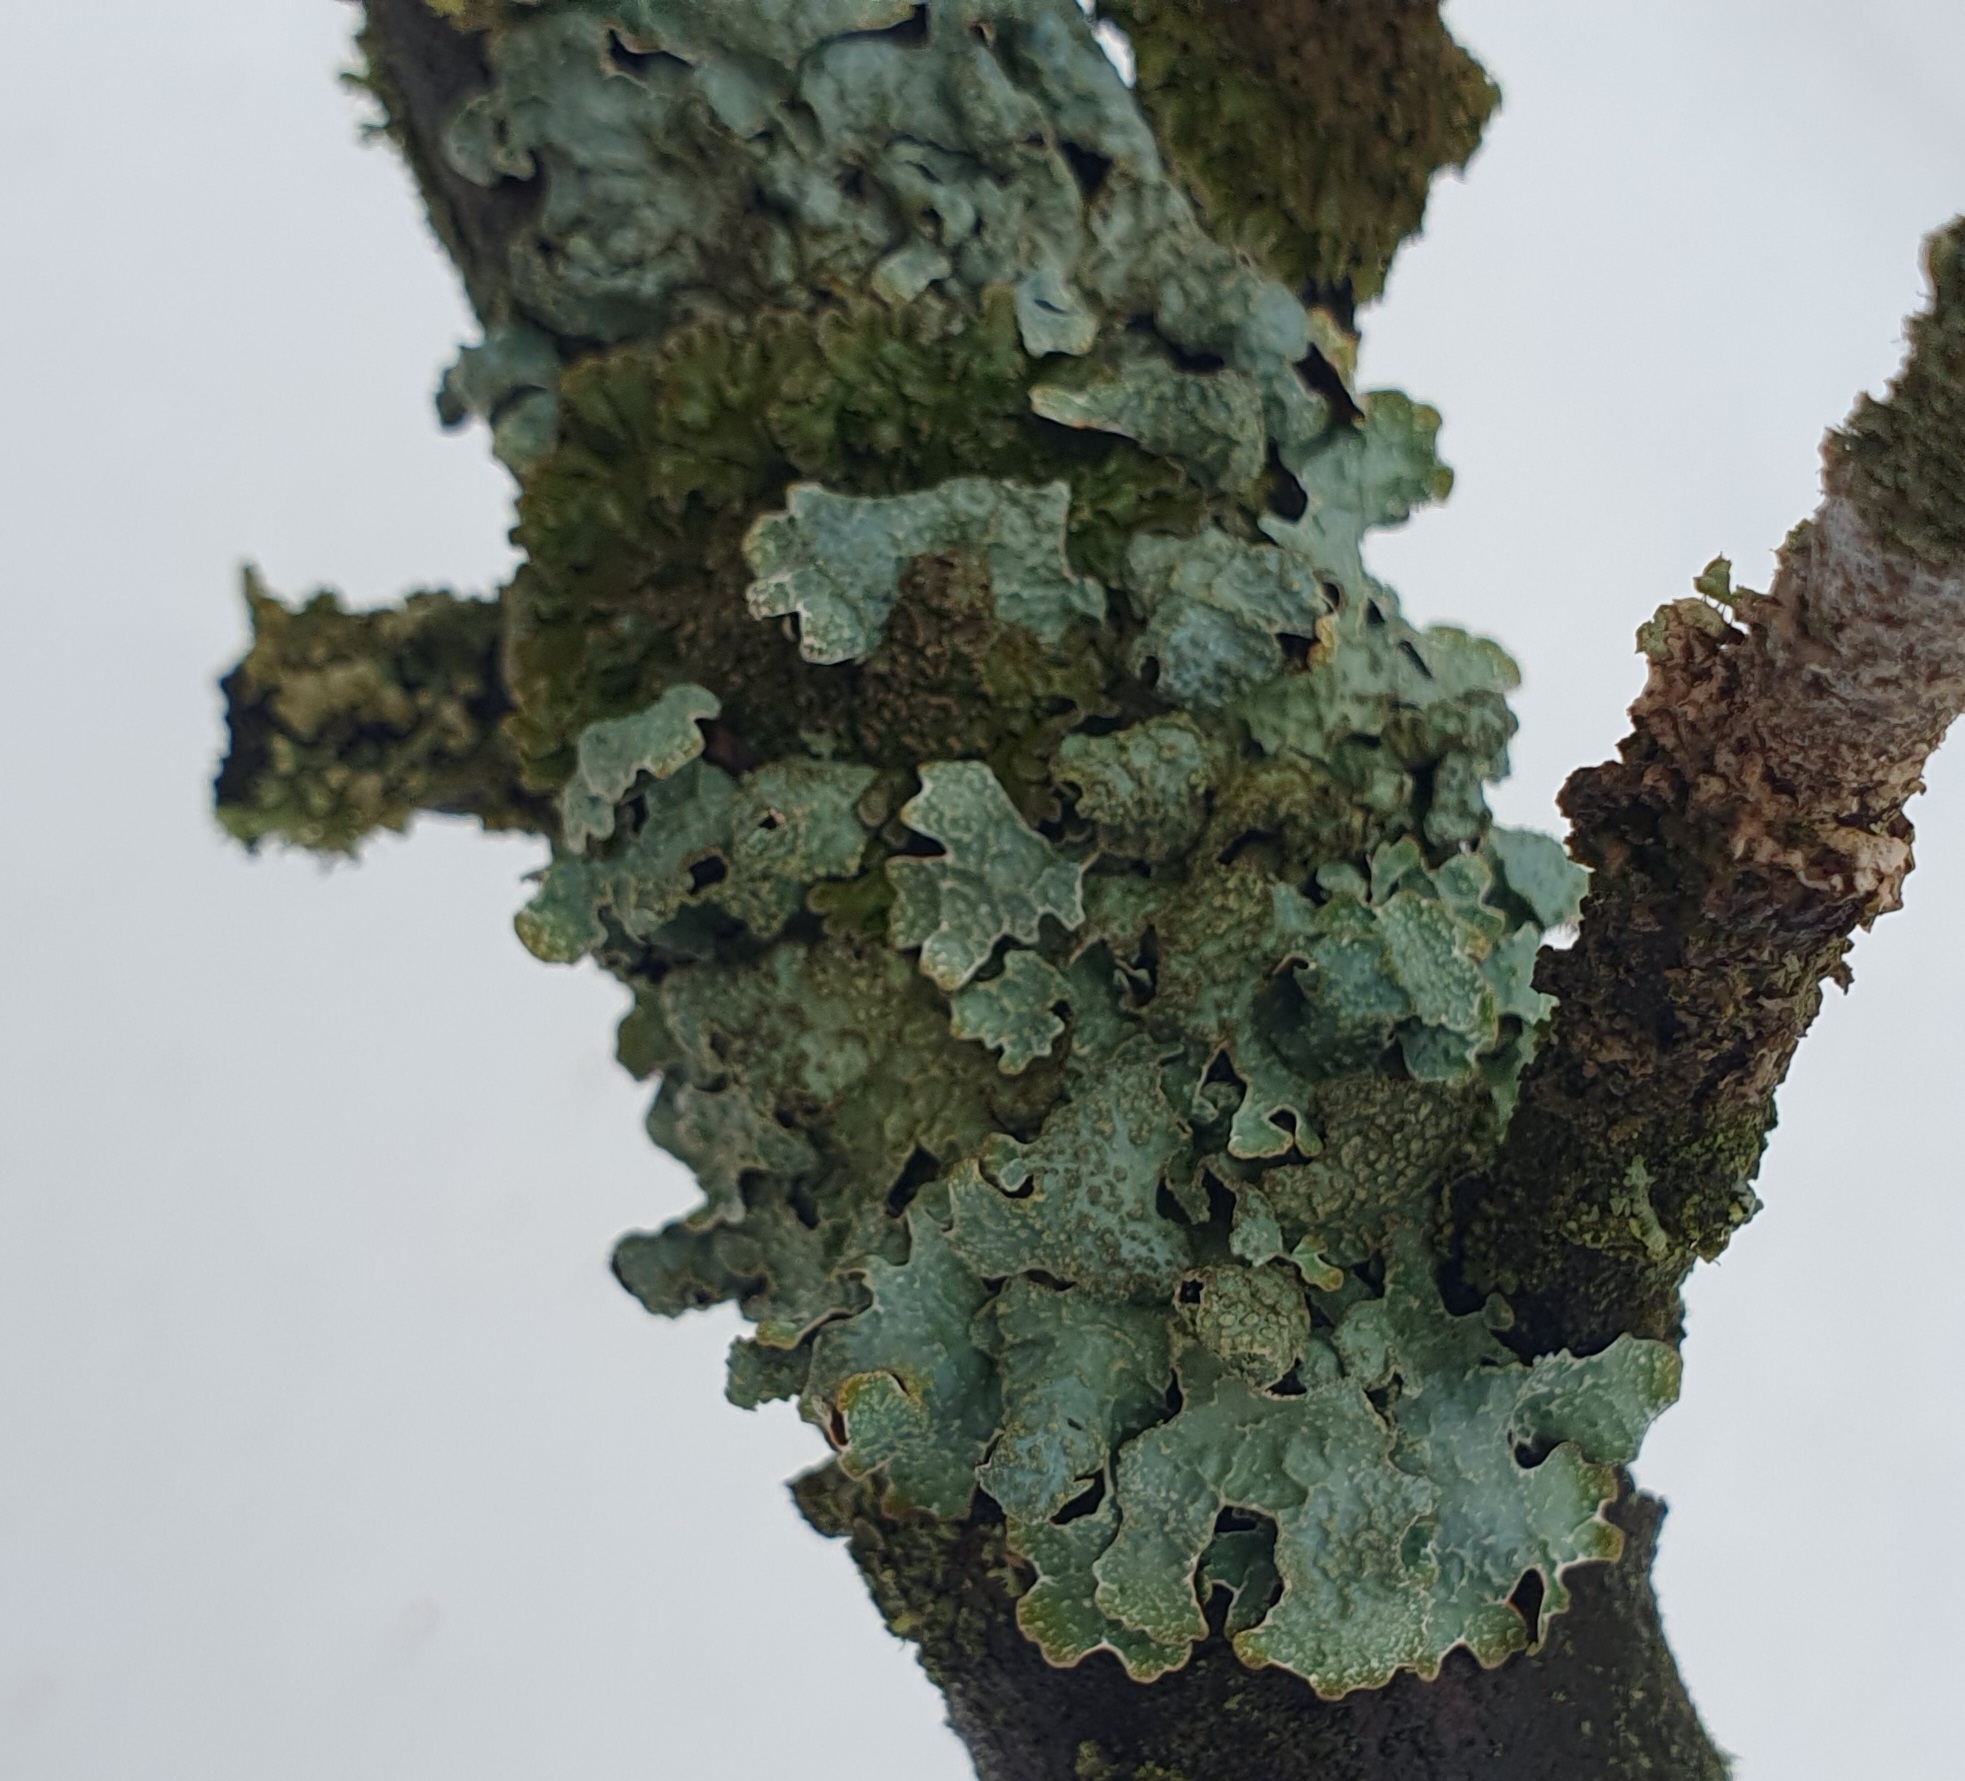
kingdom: Fungi
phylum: Ascomycota
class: Lecanoromycetes
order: Lecanorales
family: Parmeliaceae
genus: Parmelia
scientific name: Parmelia sulcata
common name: Netted shield lichen
